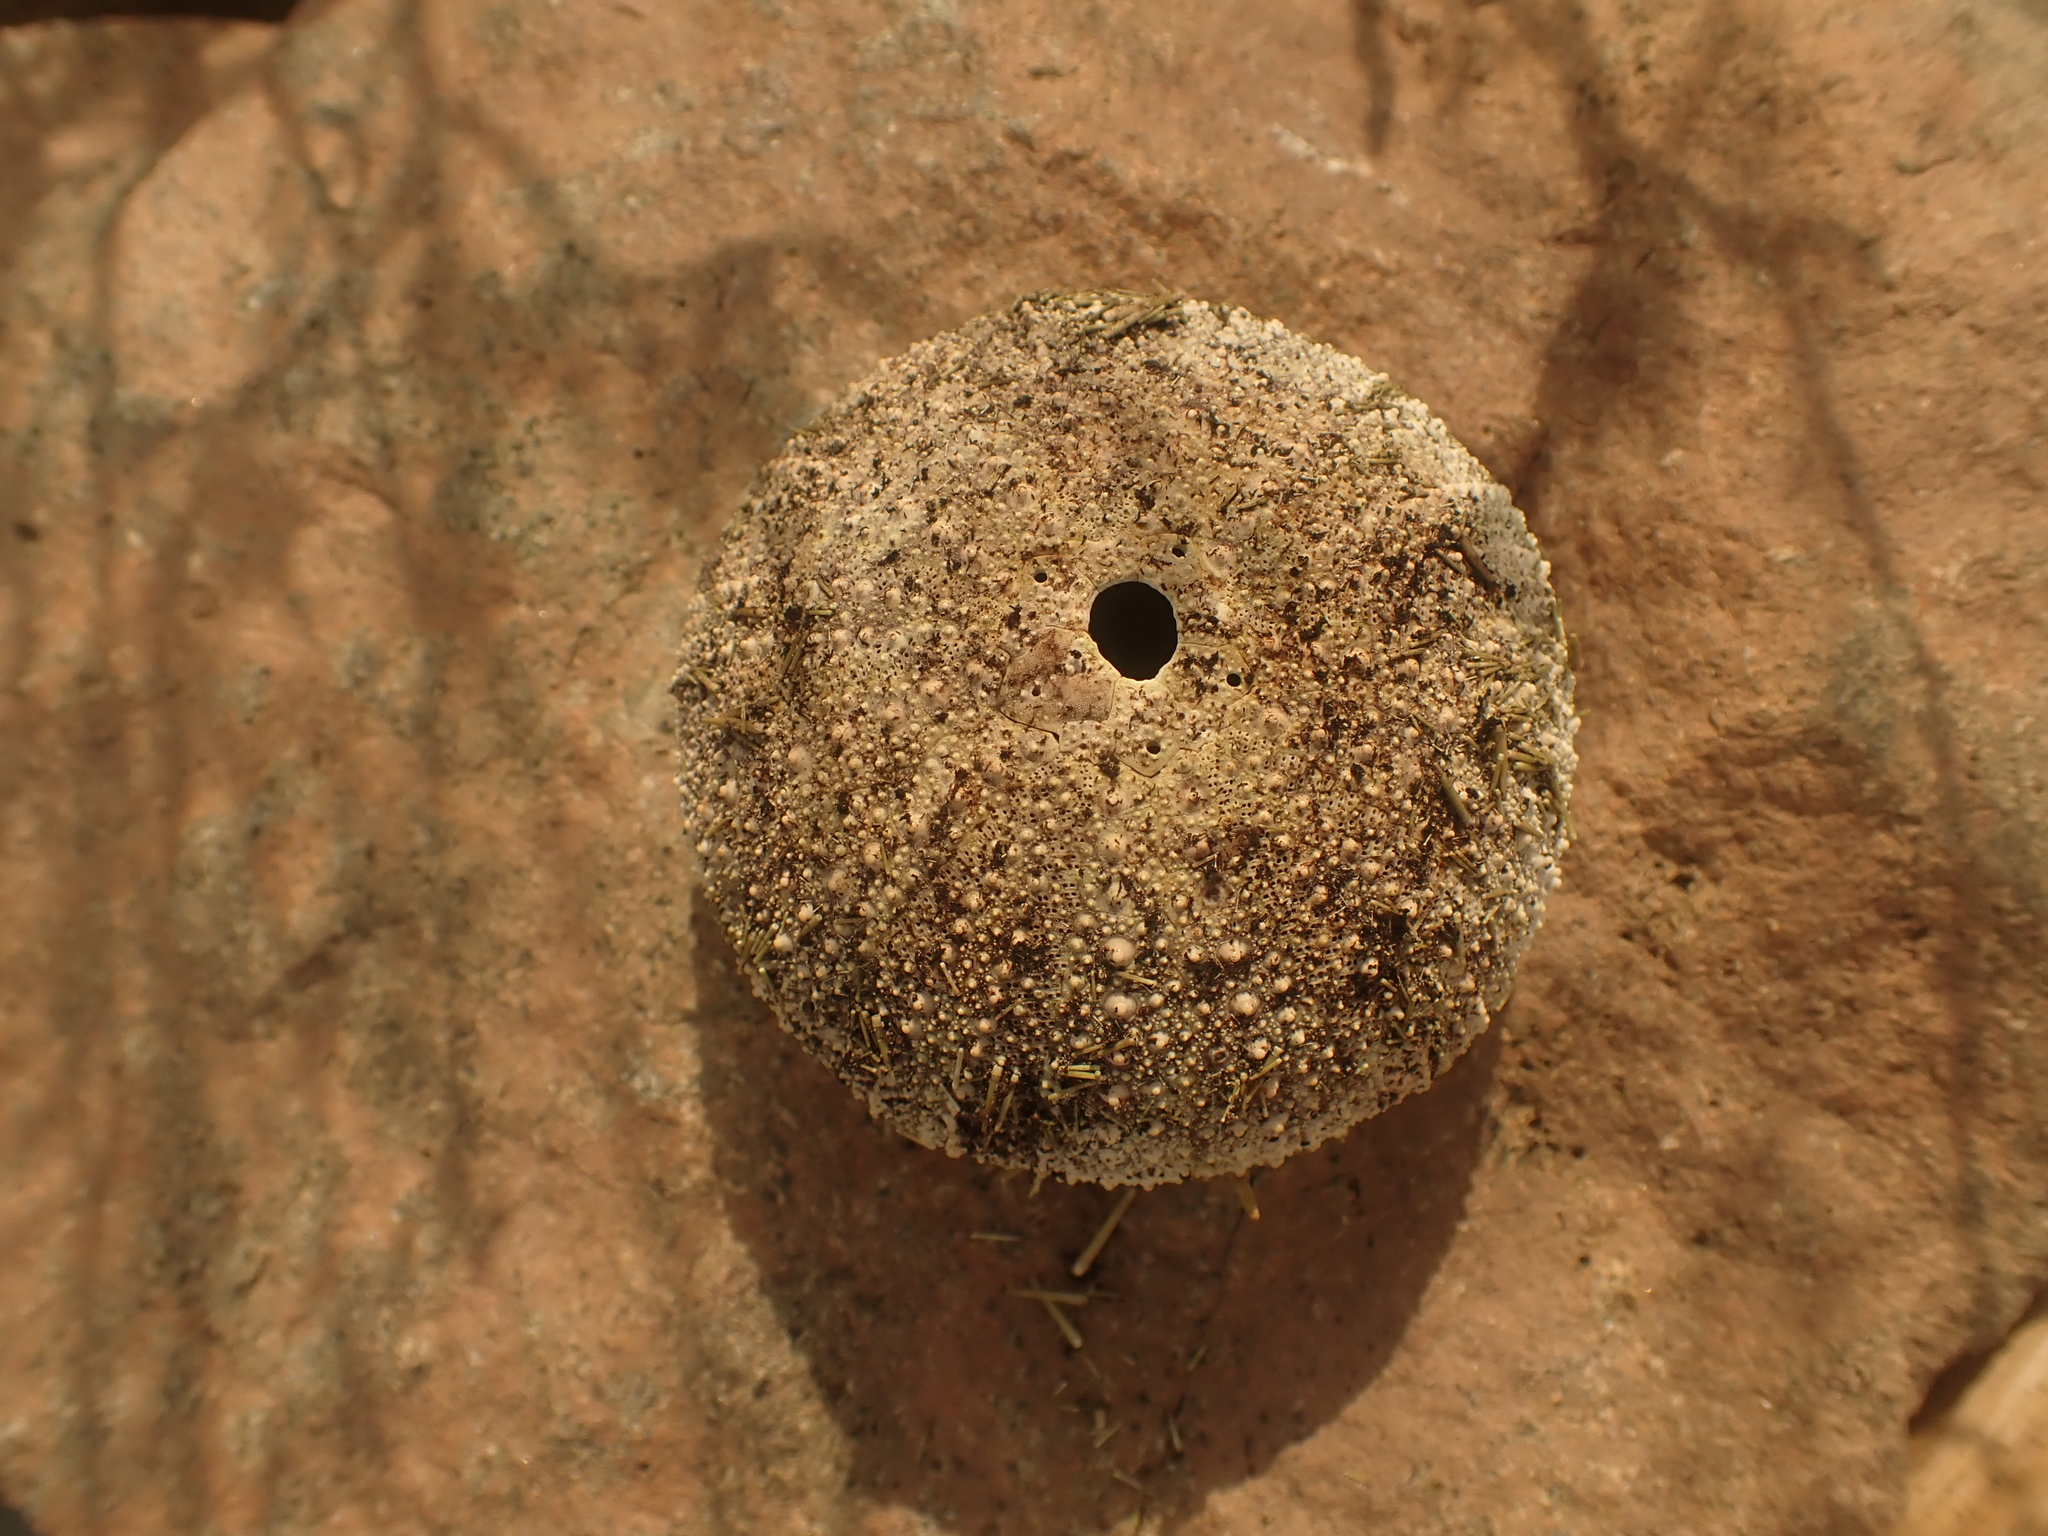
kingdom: Animalia
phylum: Echinodermata
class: Echinoidea
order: Camarodonta
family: Strongylocentrotidae
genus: Strongylocentrotus
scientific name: Strongylocentrotus droebachiensis
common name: Northern sea urchin
